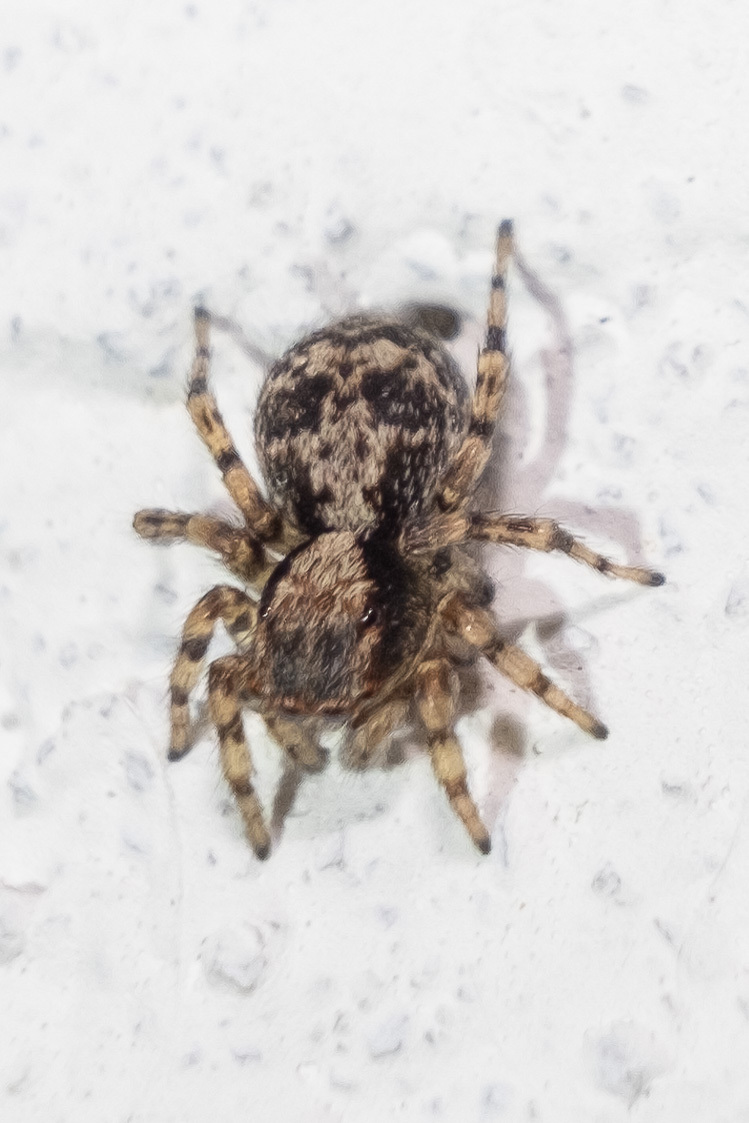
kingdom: Animalia
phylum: Arthropoda
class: Arachnida
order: Araneae
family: Salticidae
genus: Naphrys
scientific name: Naphrys pulex
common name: Flea jumping spider
